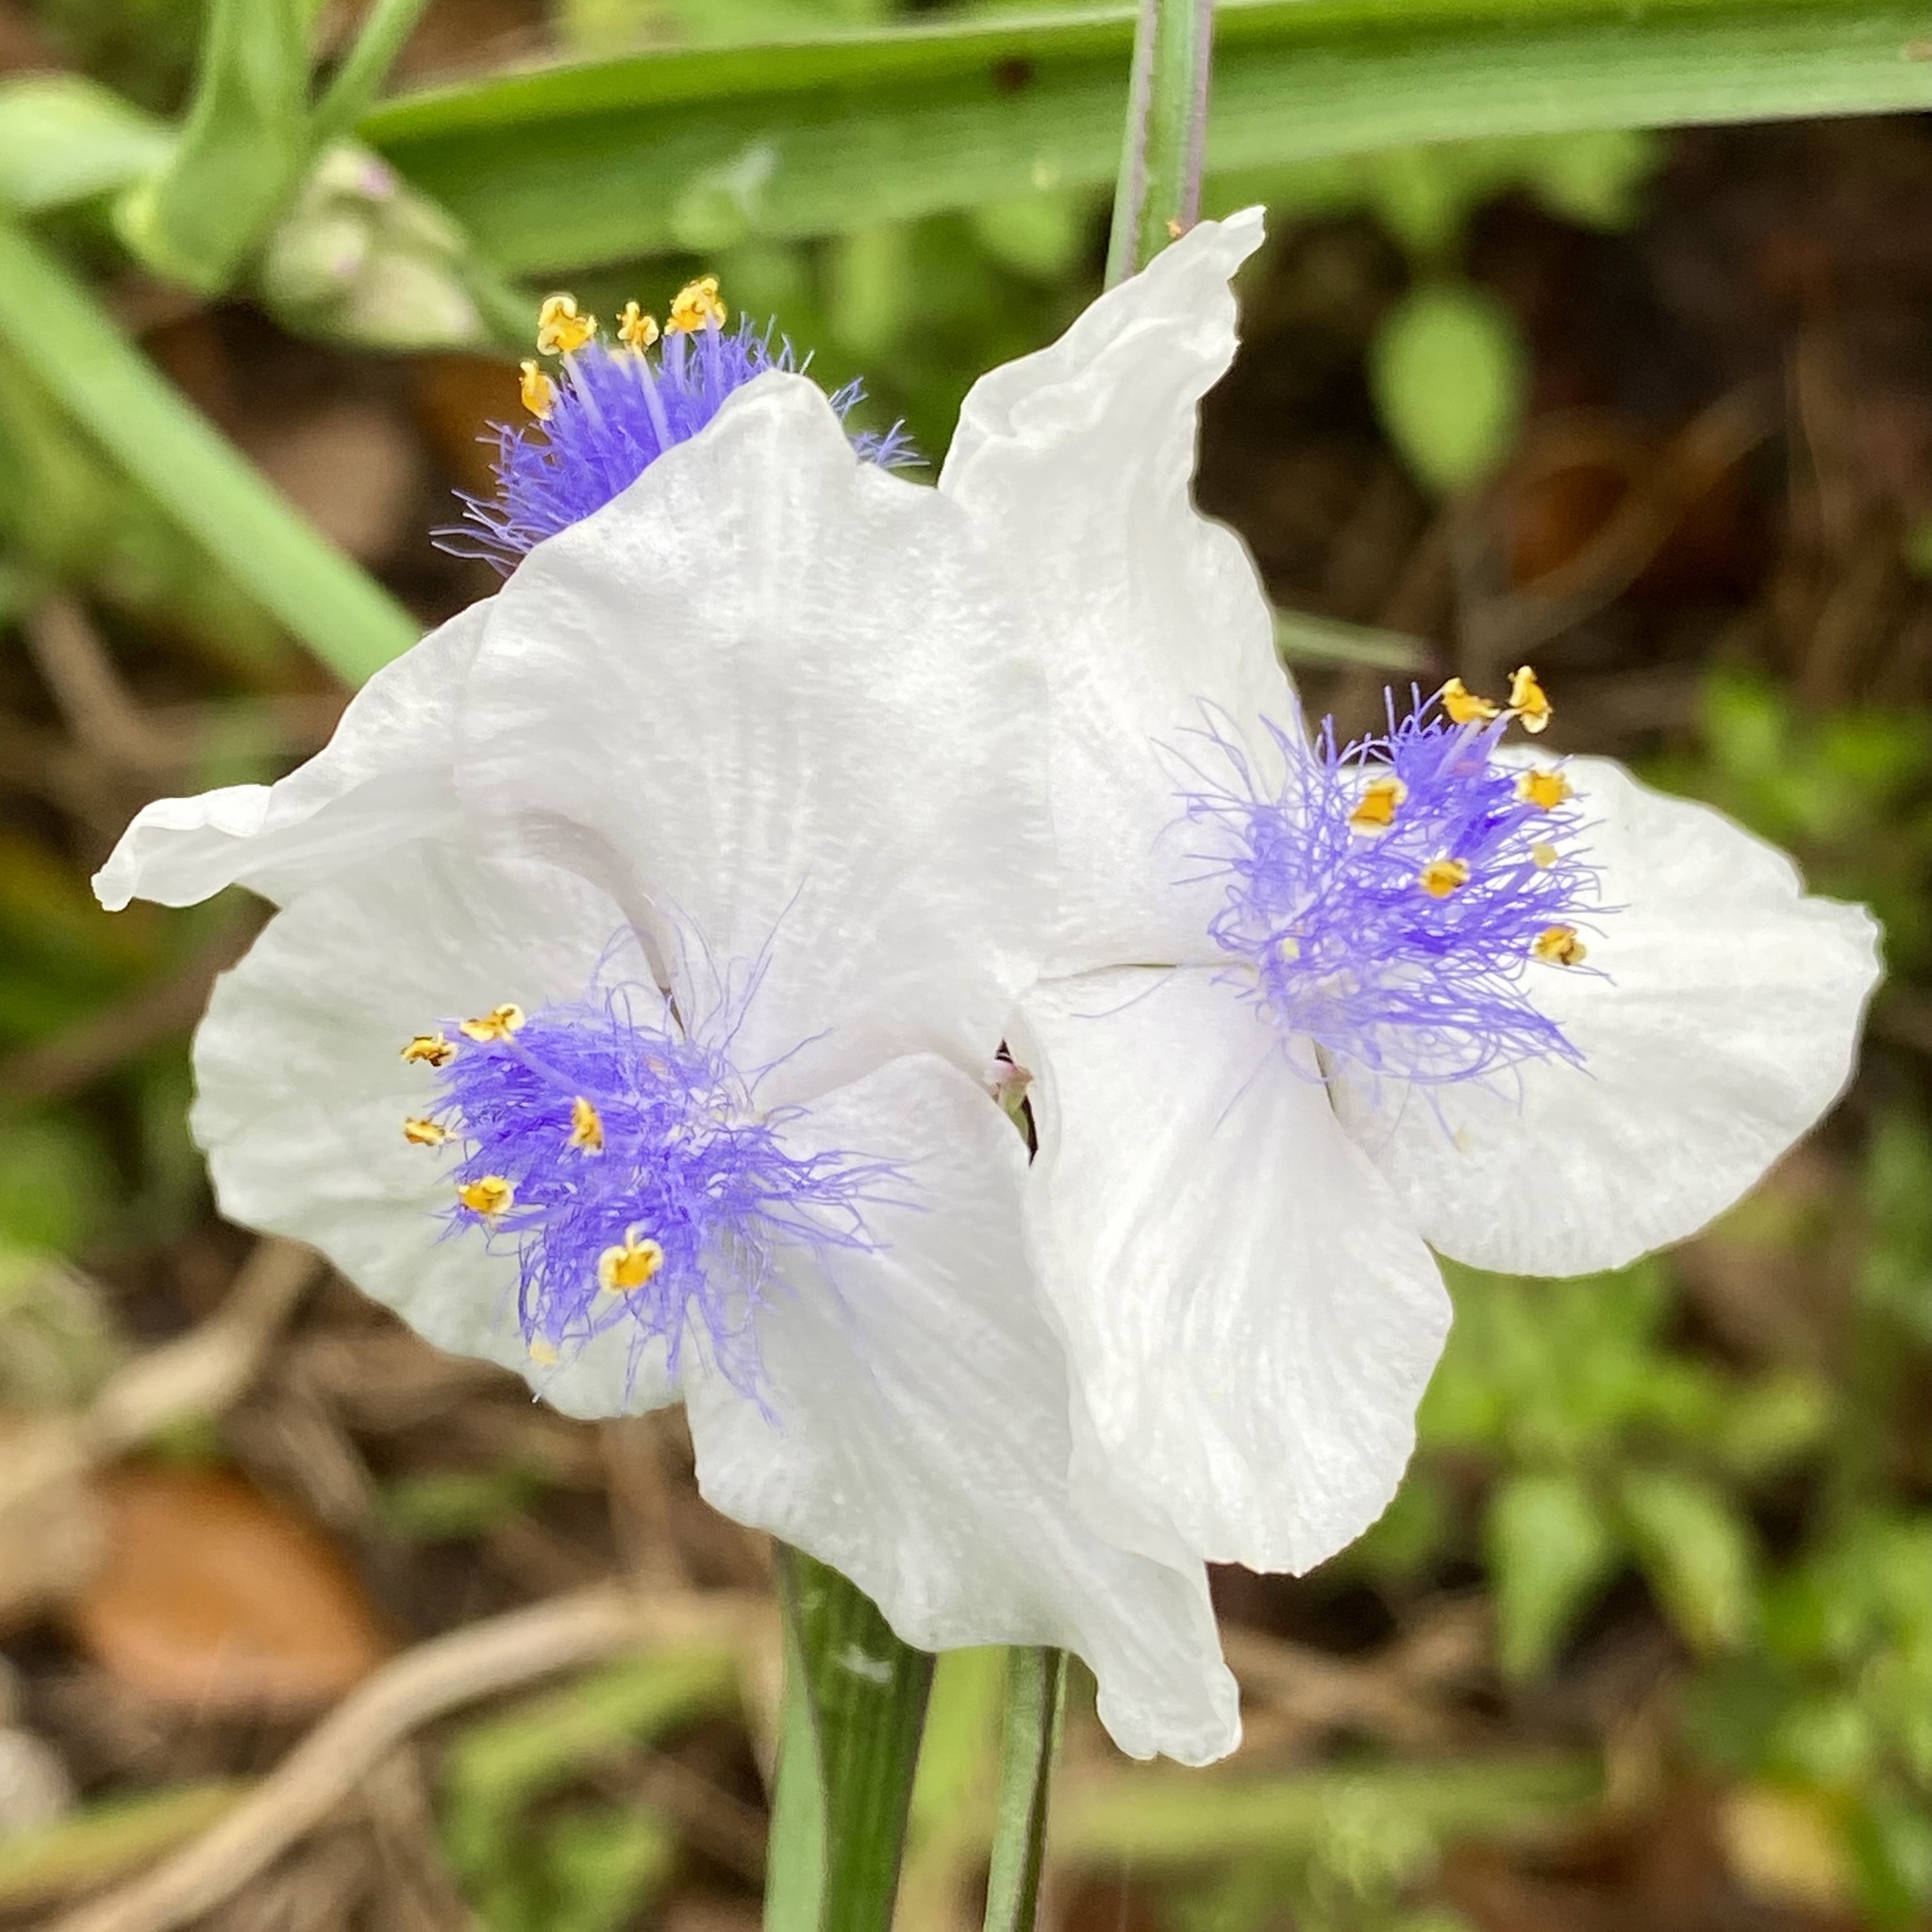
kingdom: Plantae
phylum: Tracheophyta
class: Liliopsida
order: Commelinales
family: Commelinaceae
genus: Tradescantia
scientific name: Tradescantia ohiensis
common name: Ohio spiderwort
